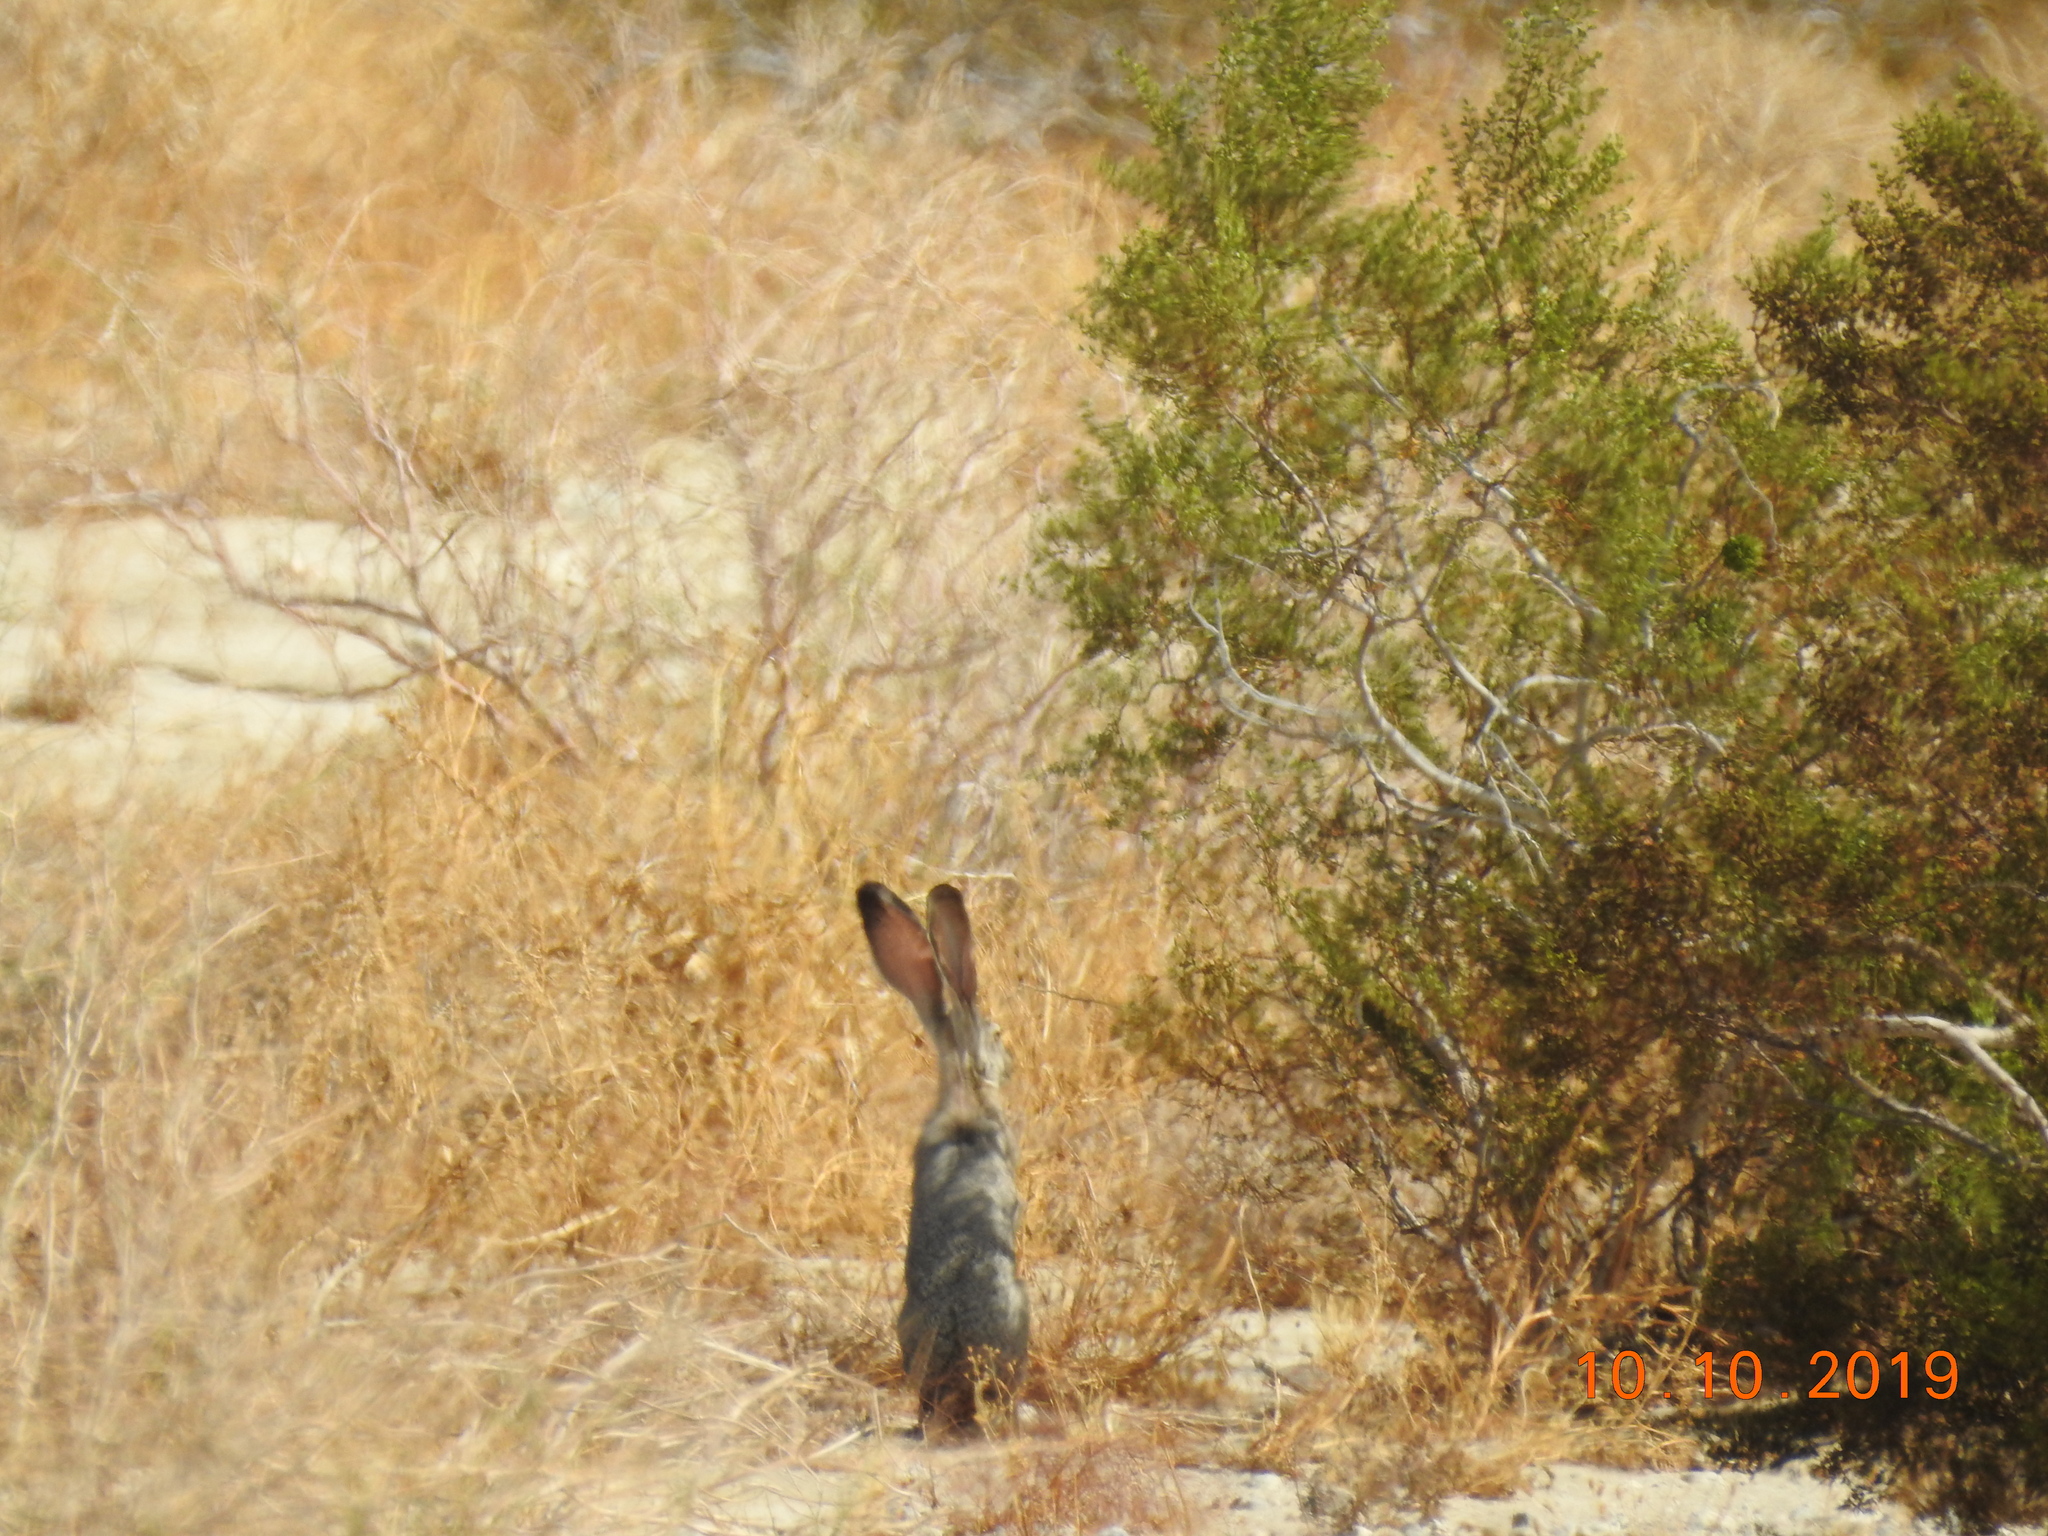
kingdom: Animalia
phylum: Chordata
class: Mammalia
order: Lagomorpha
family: Leporidae
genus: Lepus
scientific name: Lepus californicus
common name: Black-tailed jackrabbit
